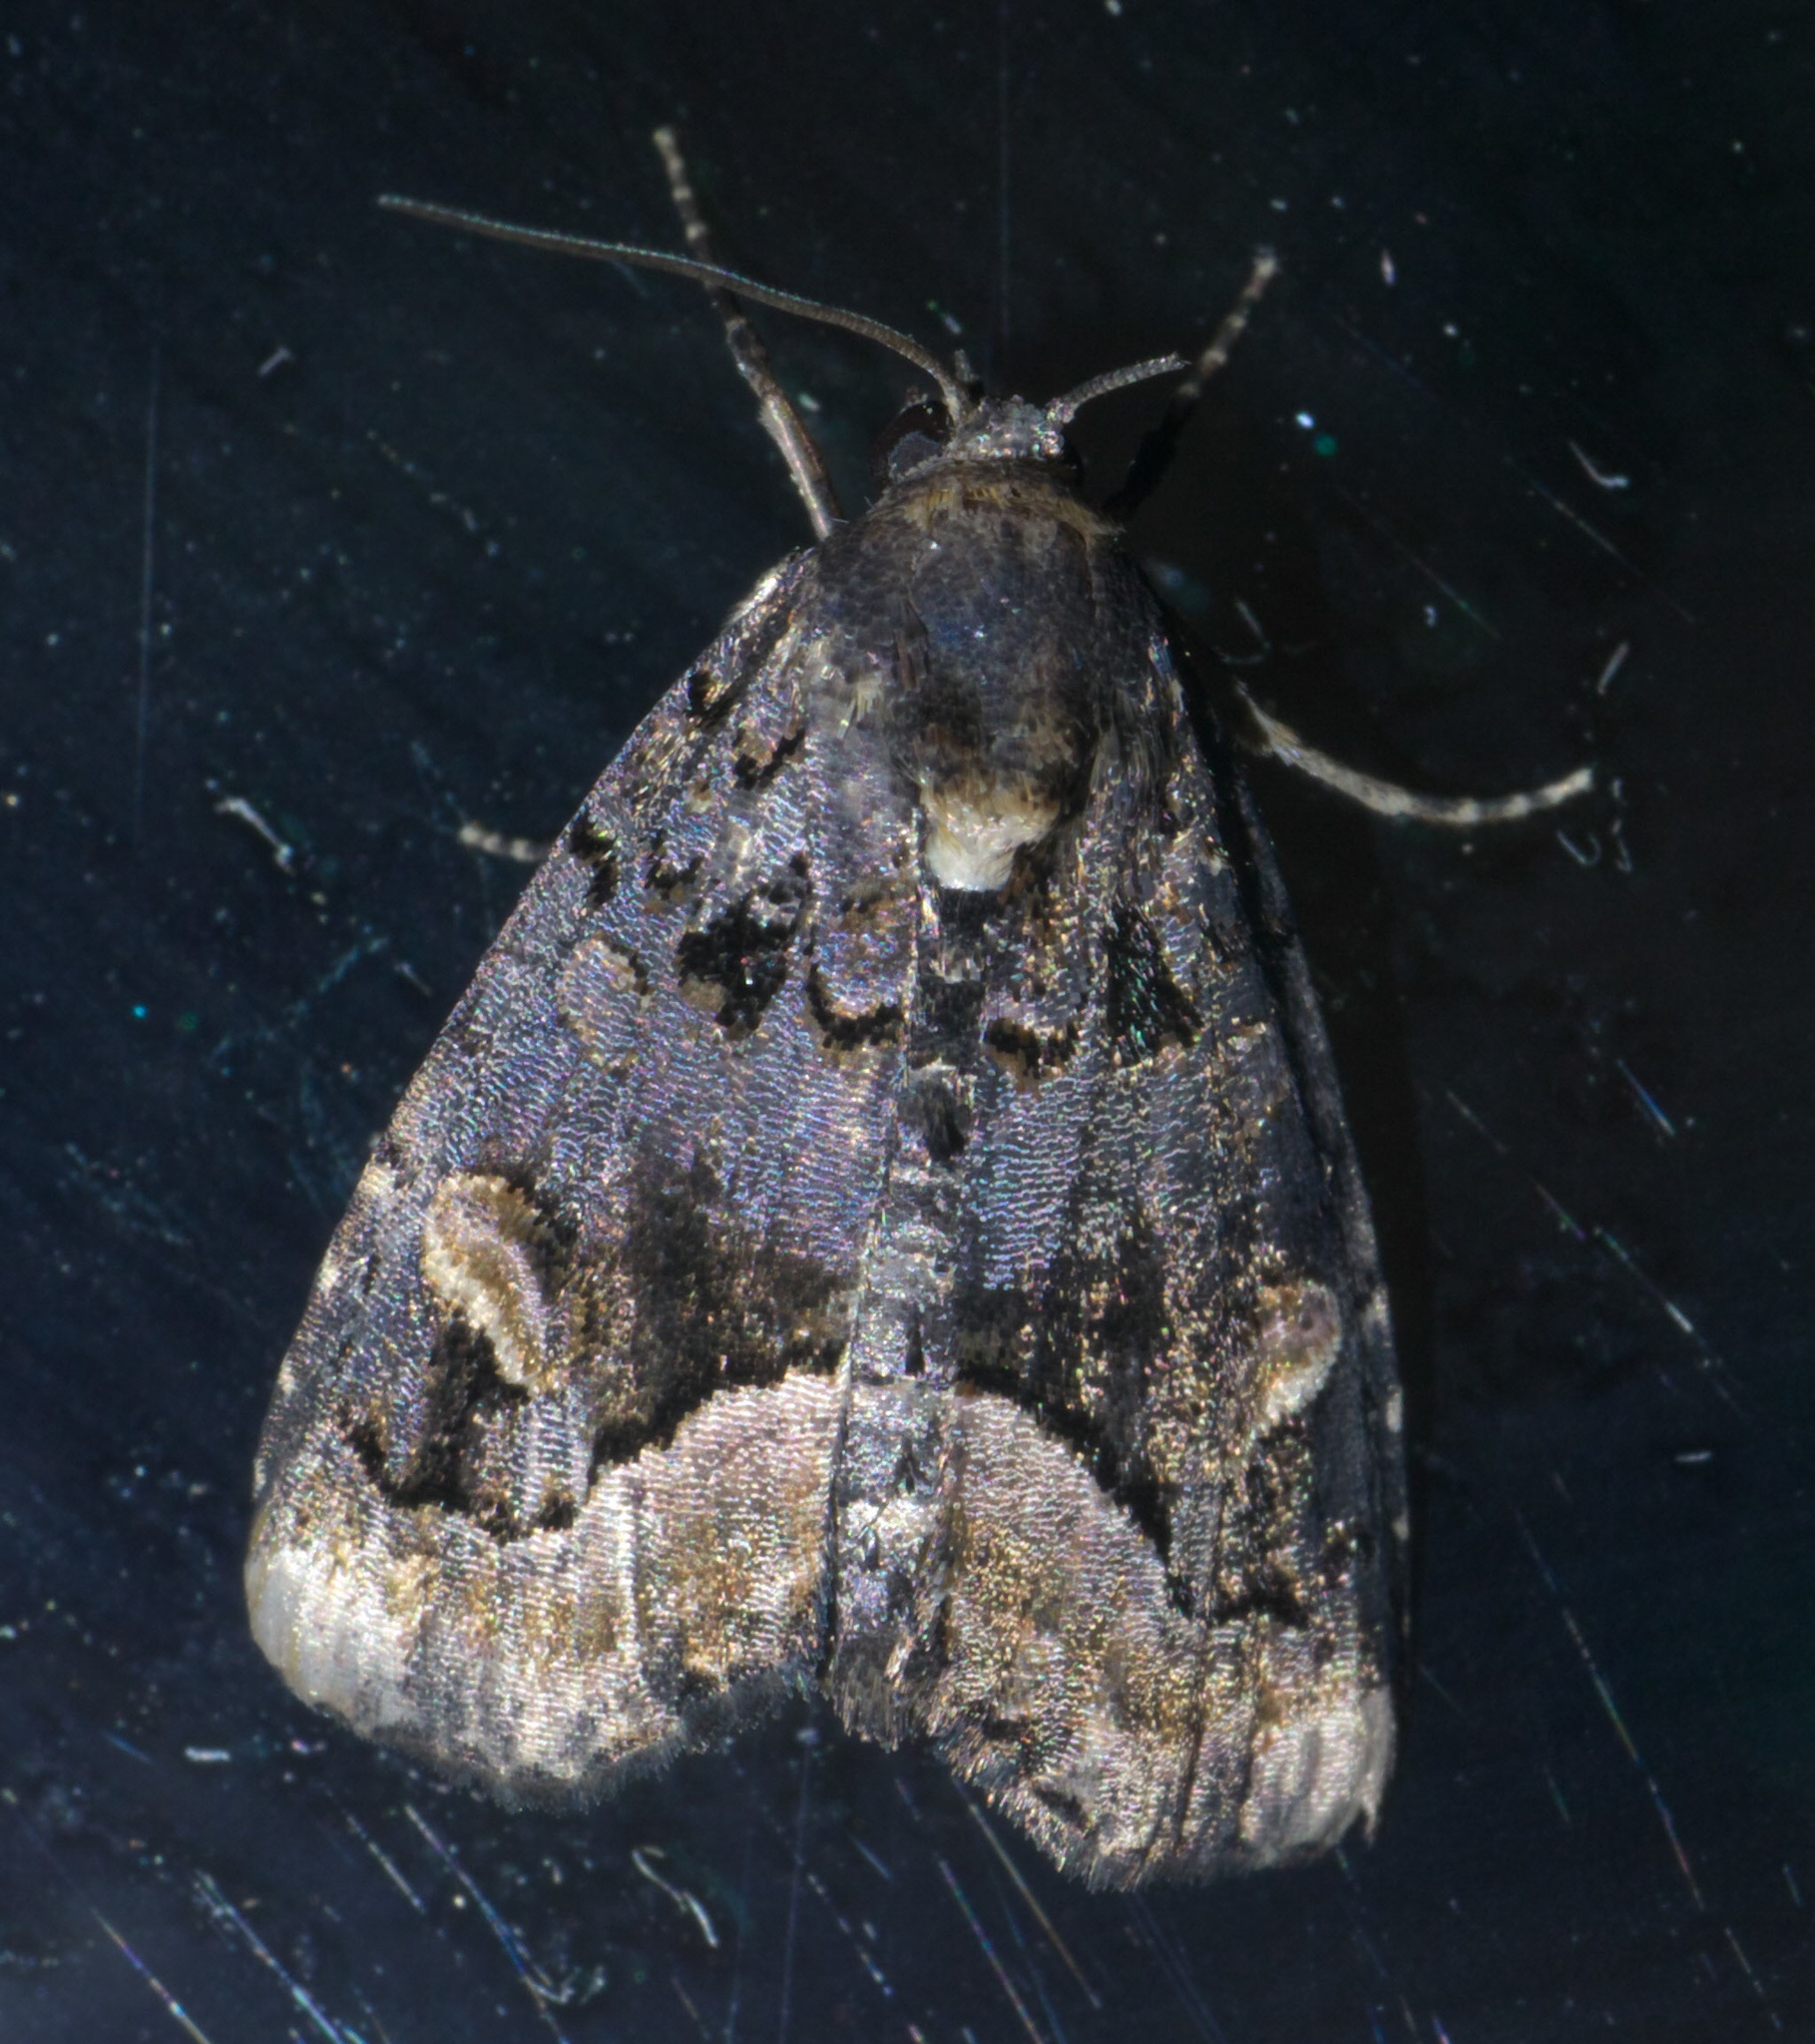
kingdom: Animalia
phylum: Arthropoda
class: Insecta
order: Lepidoptera
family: Noctuidae
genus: Homophoberia
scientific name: Homophoberia apicosa
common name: Black wedge-spot
